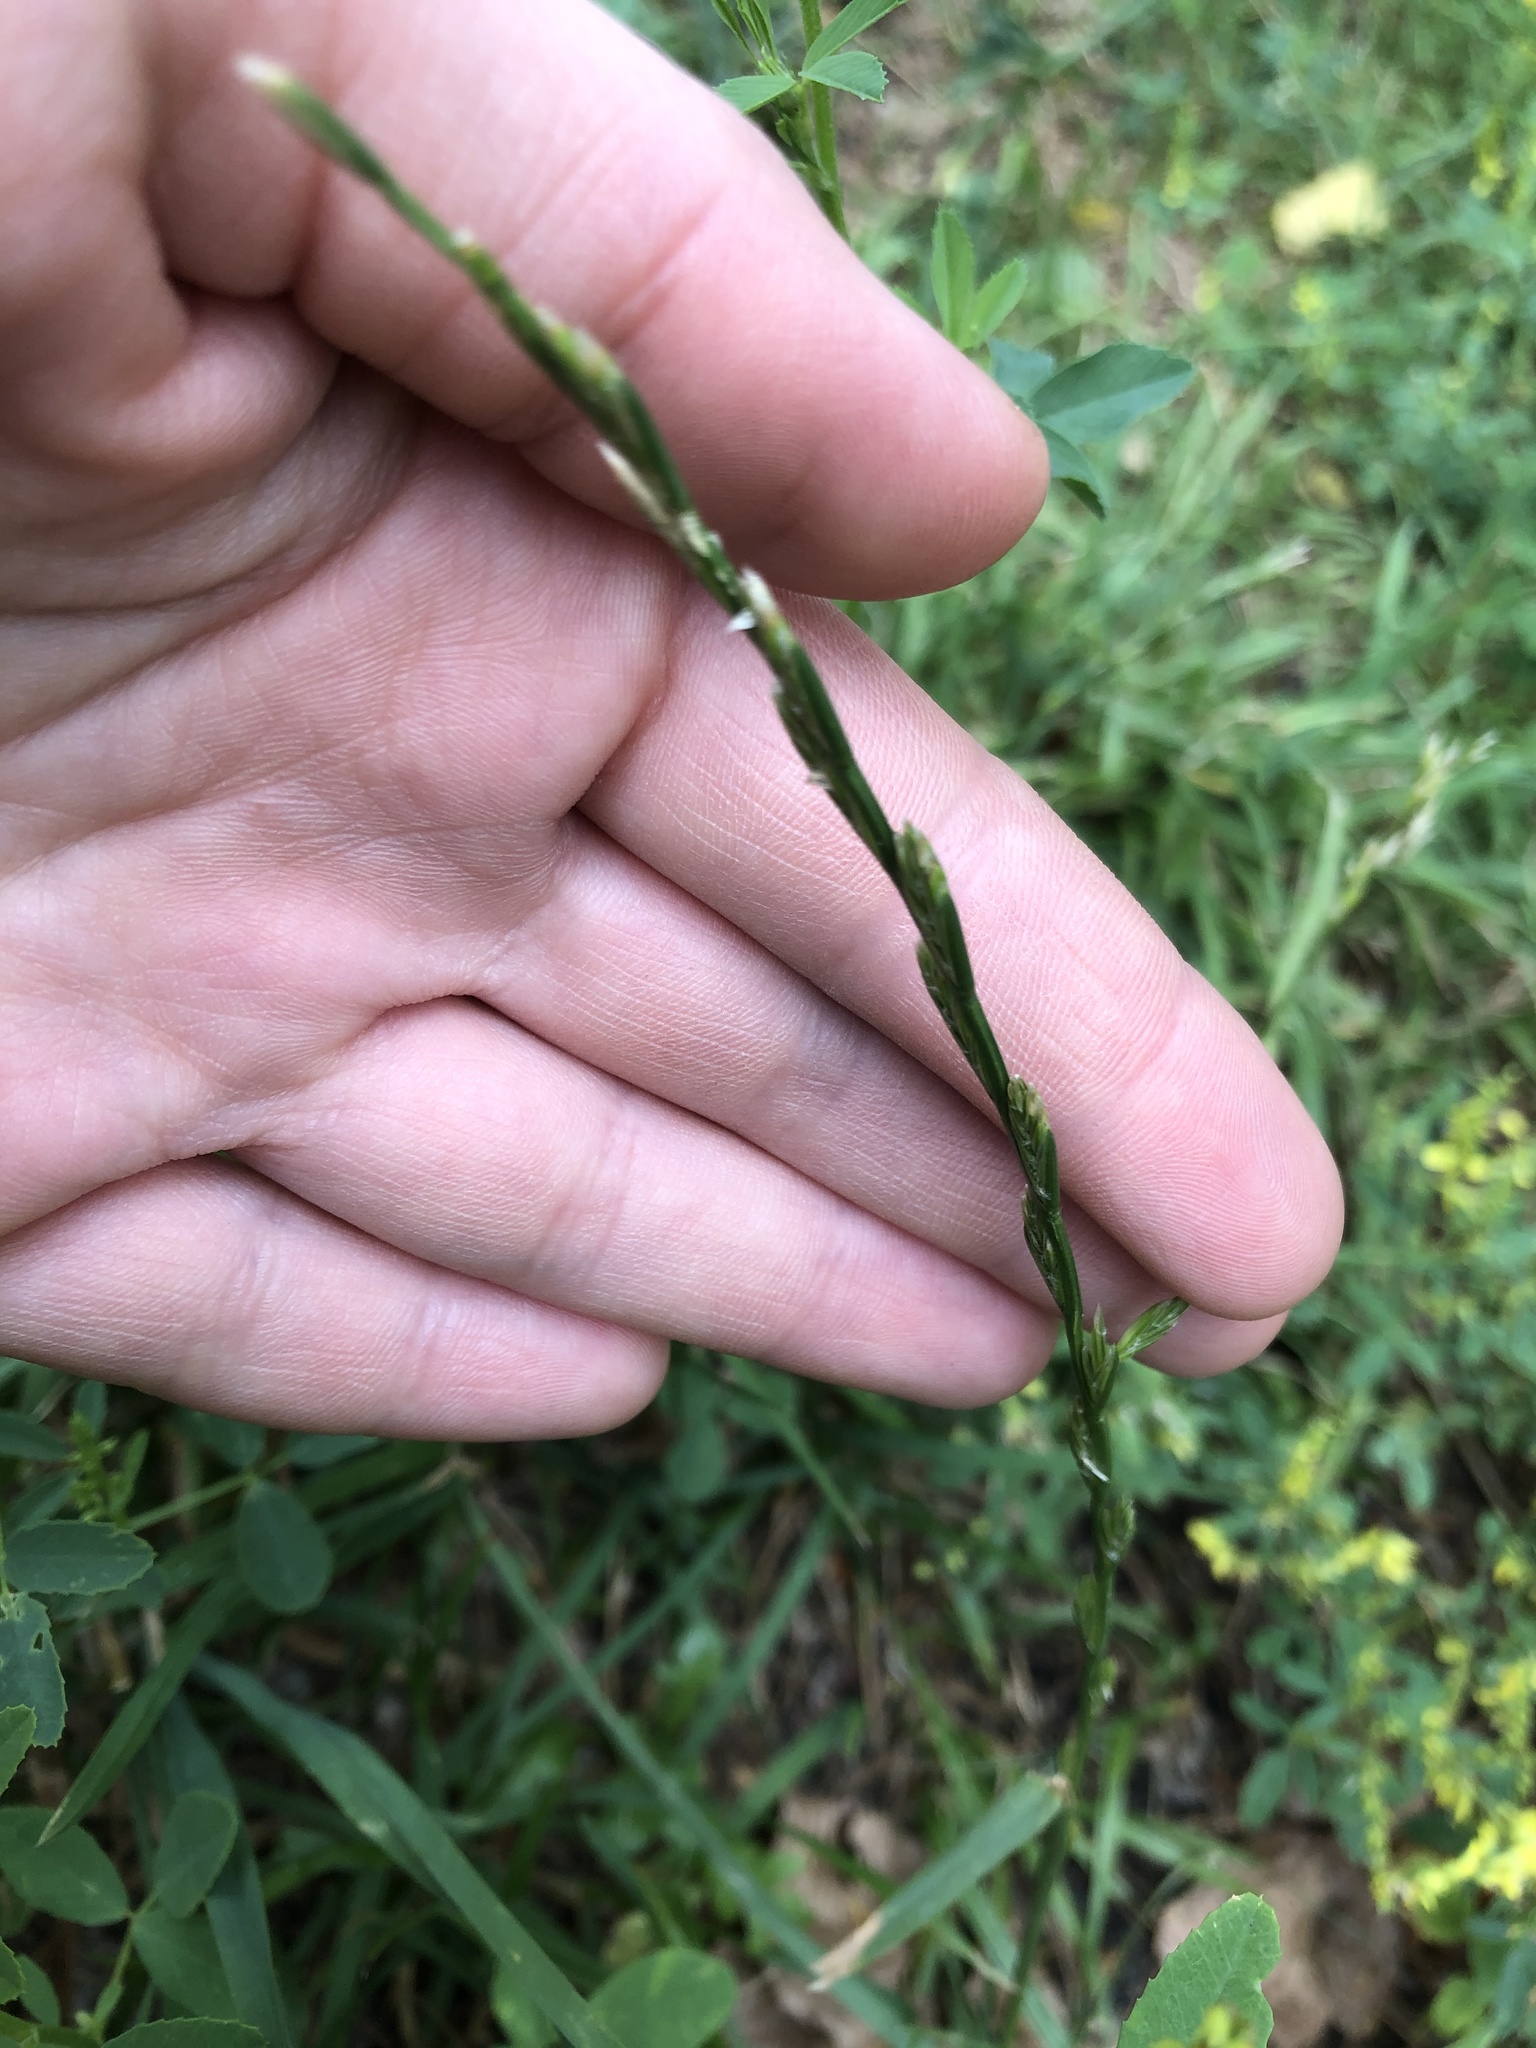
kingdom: Plantae
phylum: Tracheophyta
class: Liliopsida
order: Poales
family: Poaceae
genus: Lolium
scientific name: Lolium perenne
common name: Perennial ryegrass
